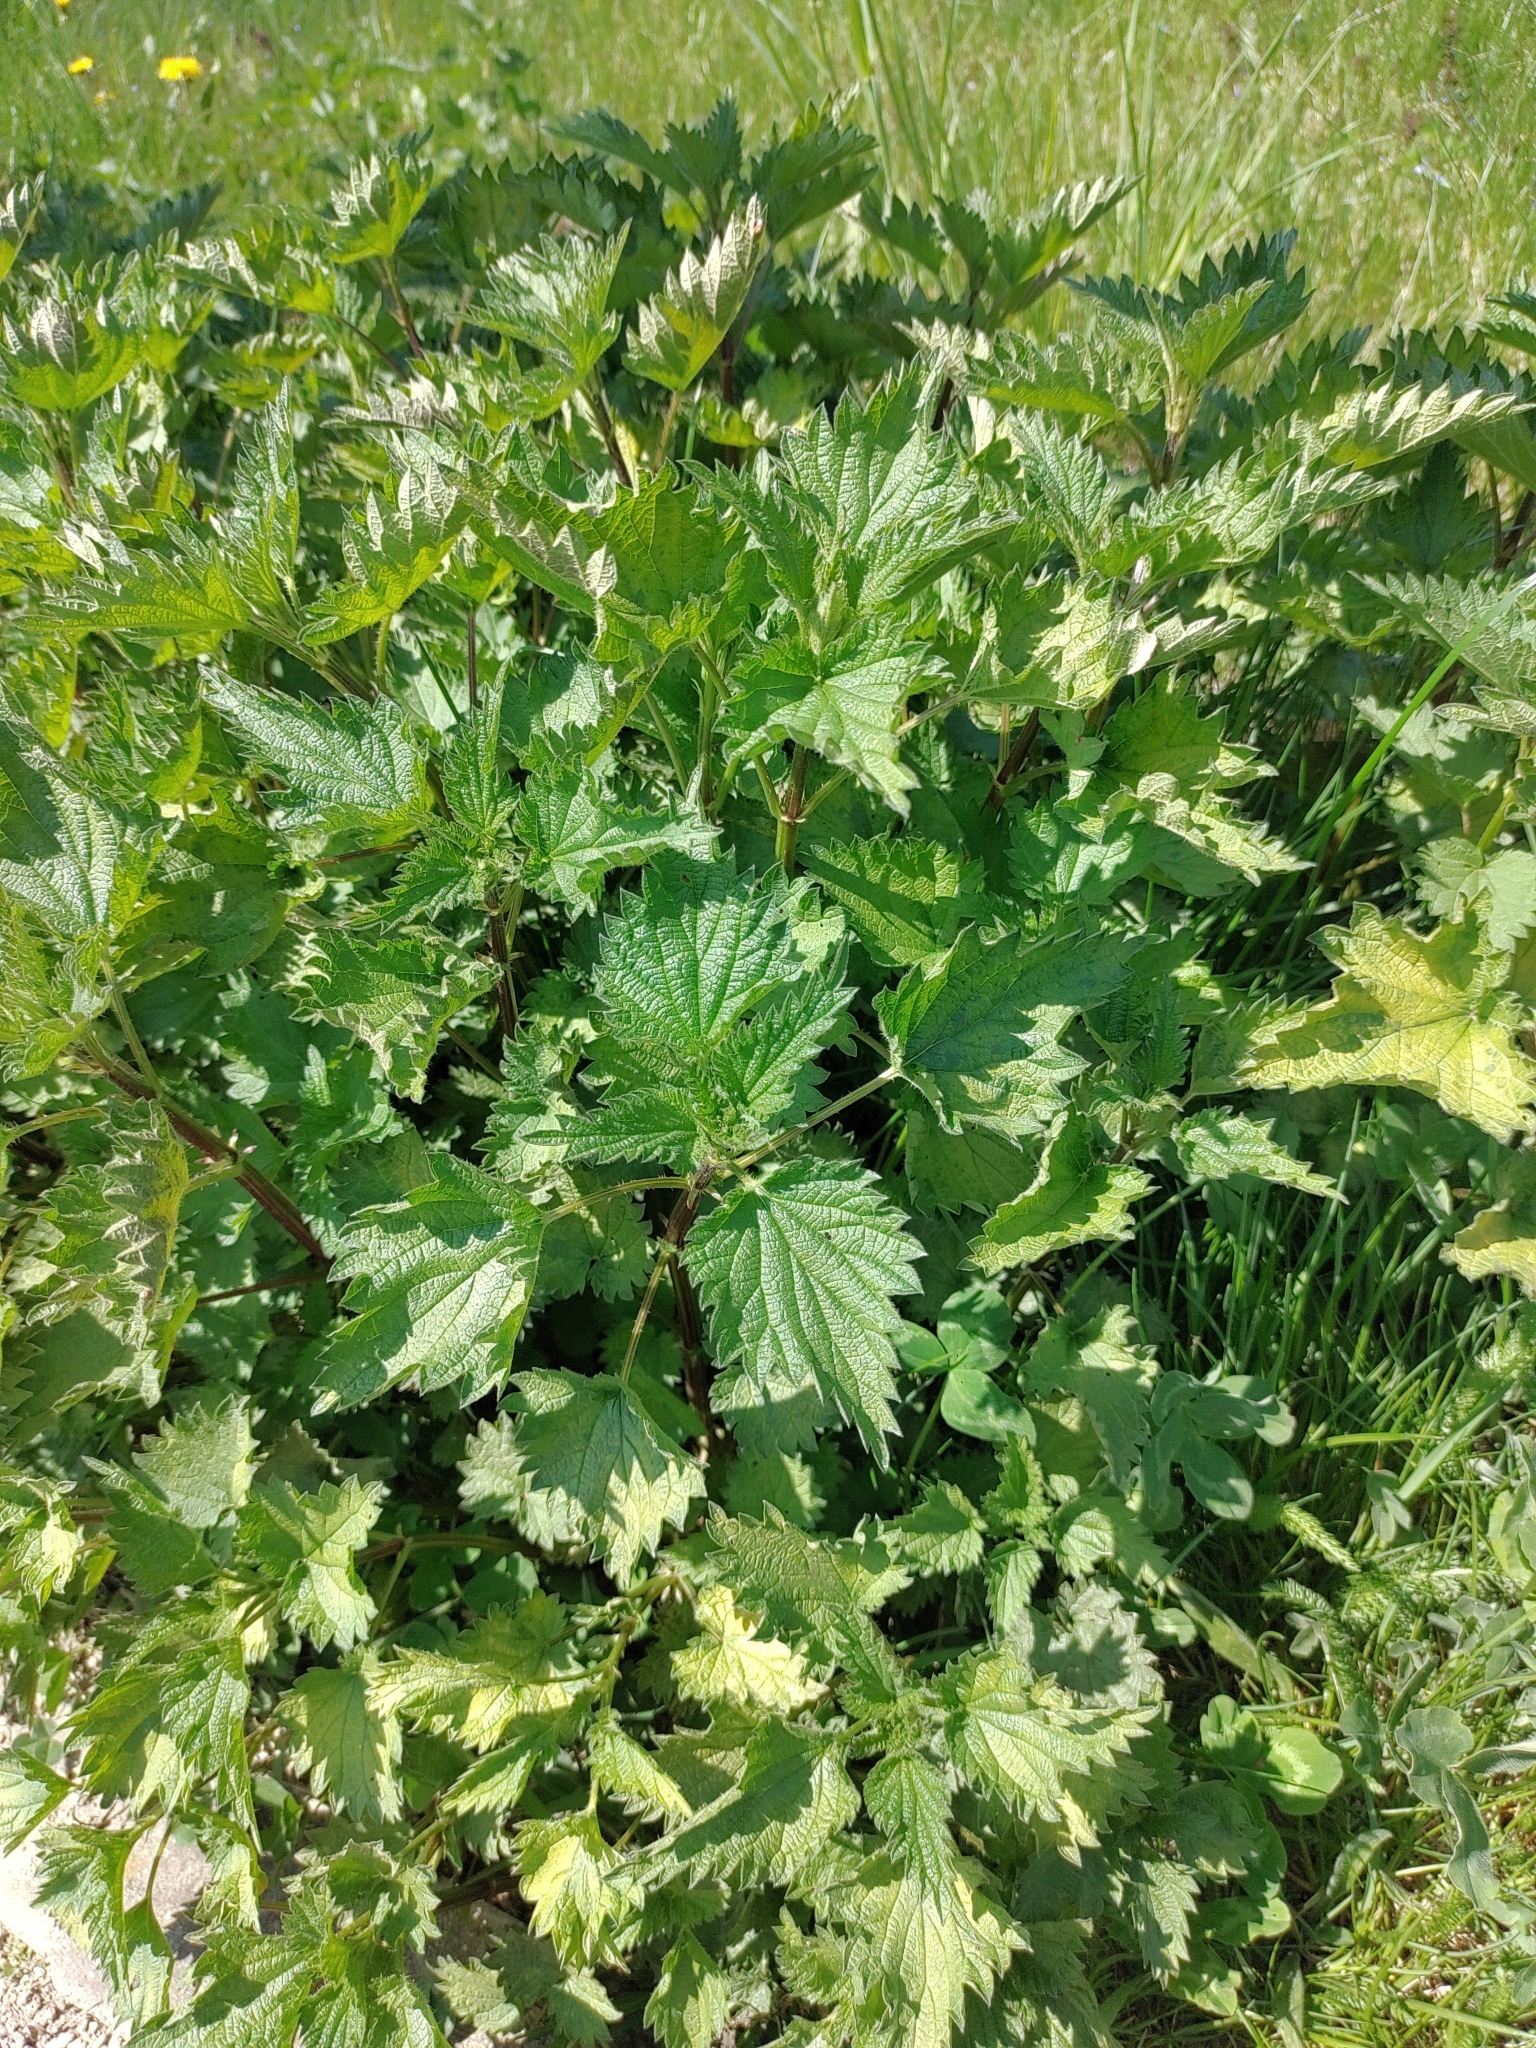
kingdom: Plantae
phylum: Tracheophyta
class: Magnoliopsida
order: Rosales
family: Urticaceae
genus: Urtica
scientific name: Urtica dioica
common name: Common nettle
